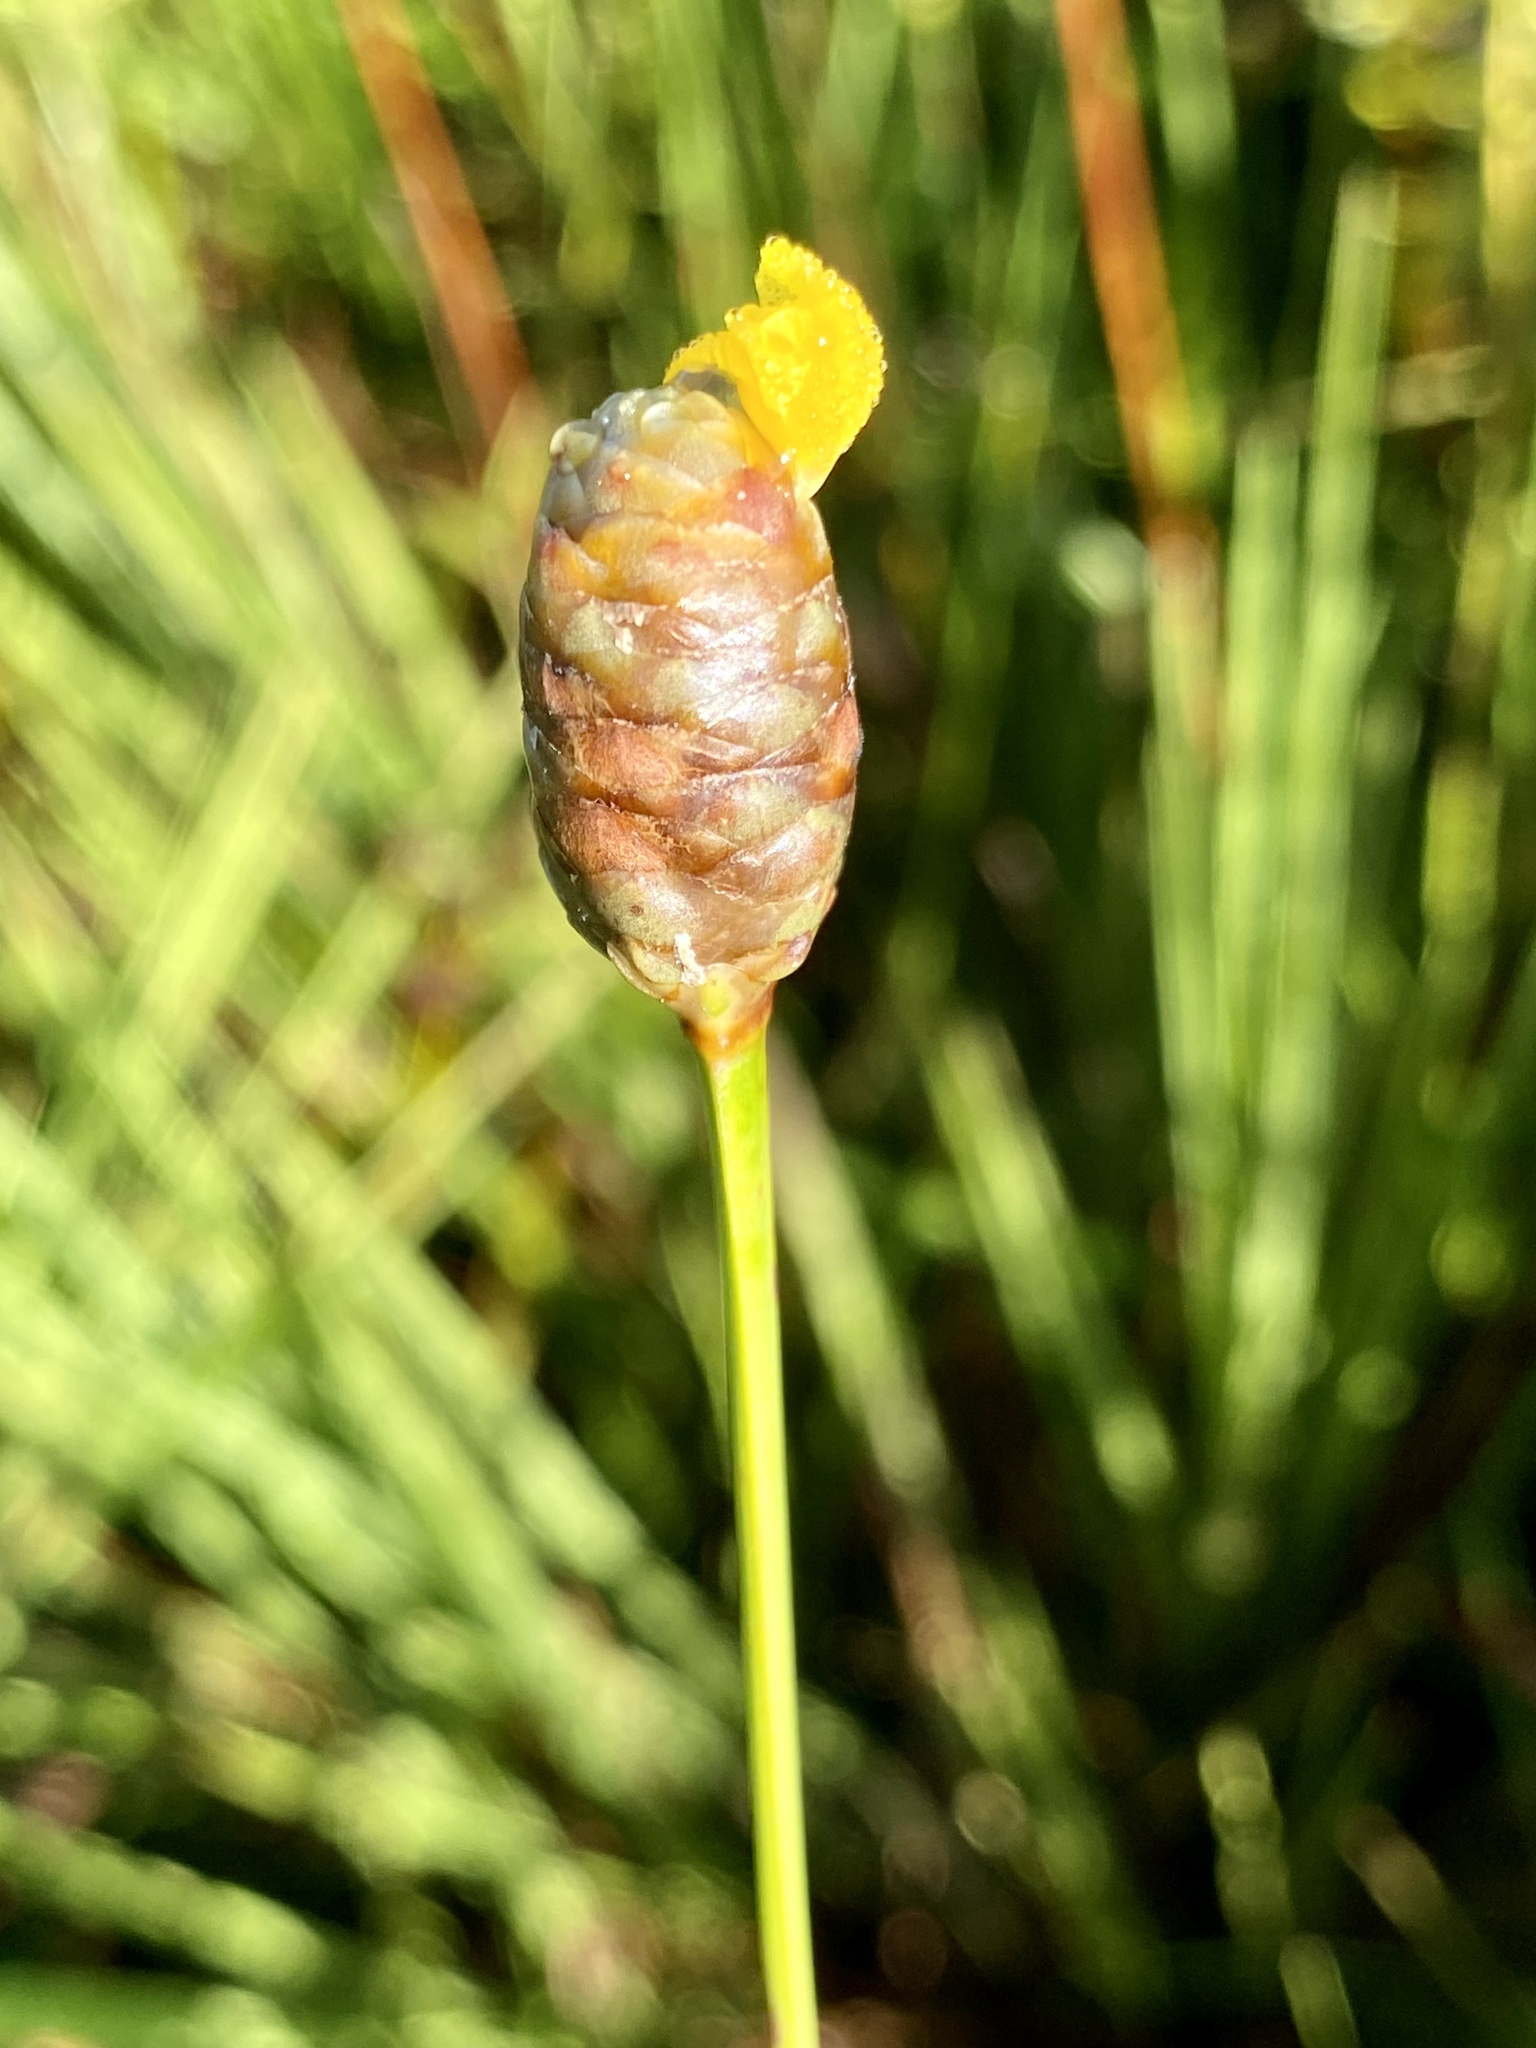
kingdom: Plantae
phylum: Tracheophyta
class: Liliopsida
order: Poales
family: Xyridaceae
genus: Xyris
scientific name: Xyris platylepis
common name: Tall yelloweyed grass
